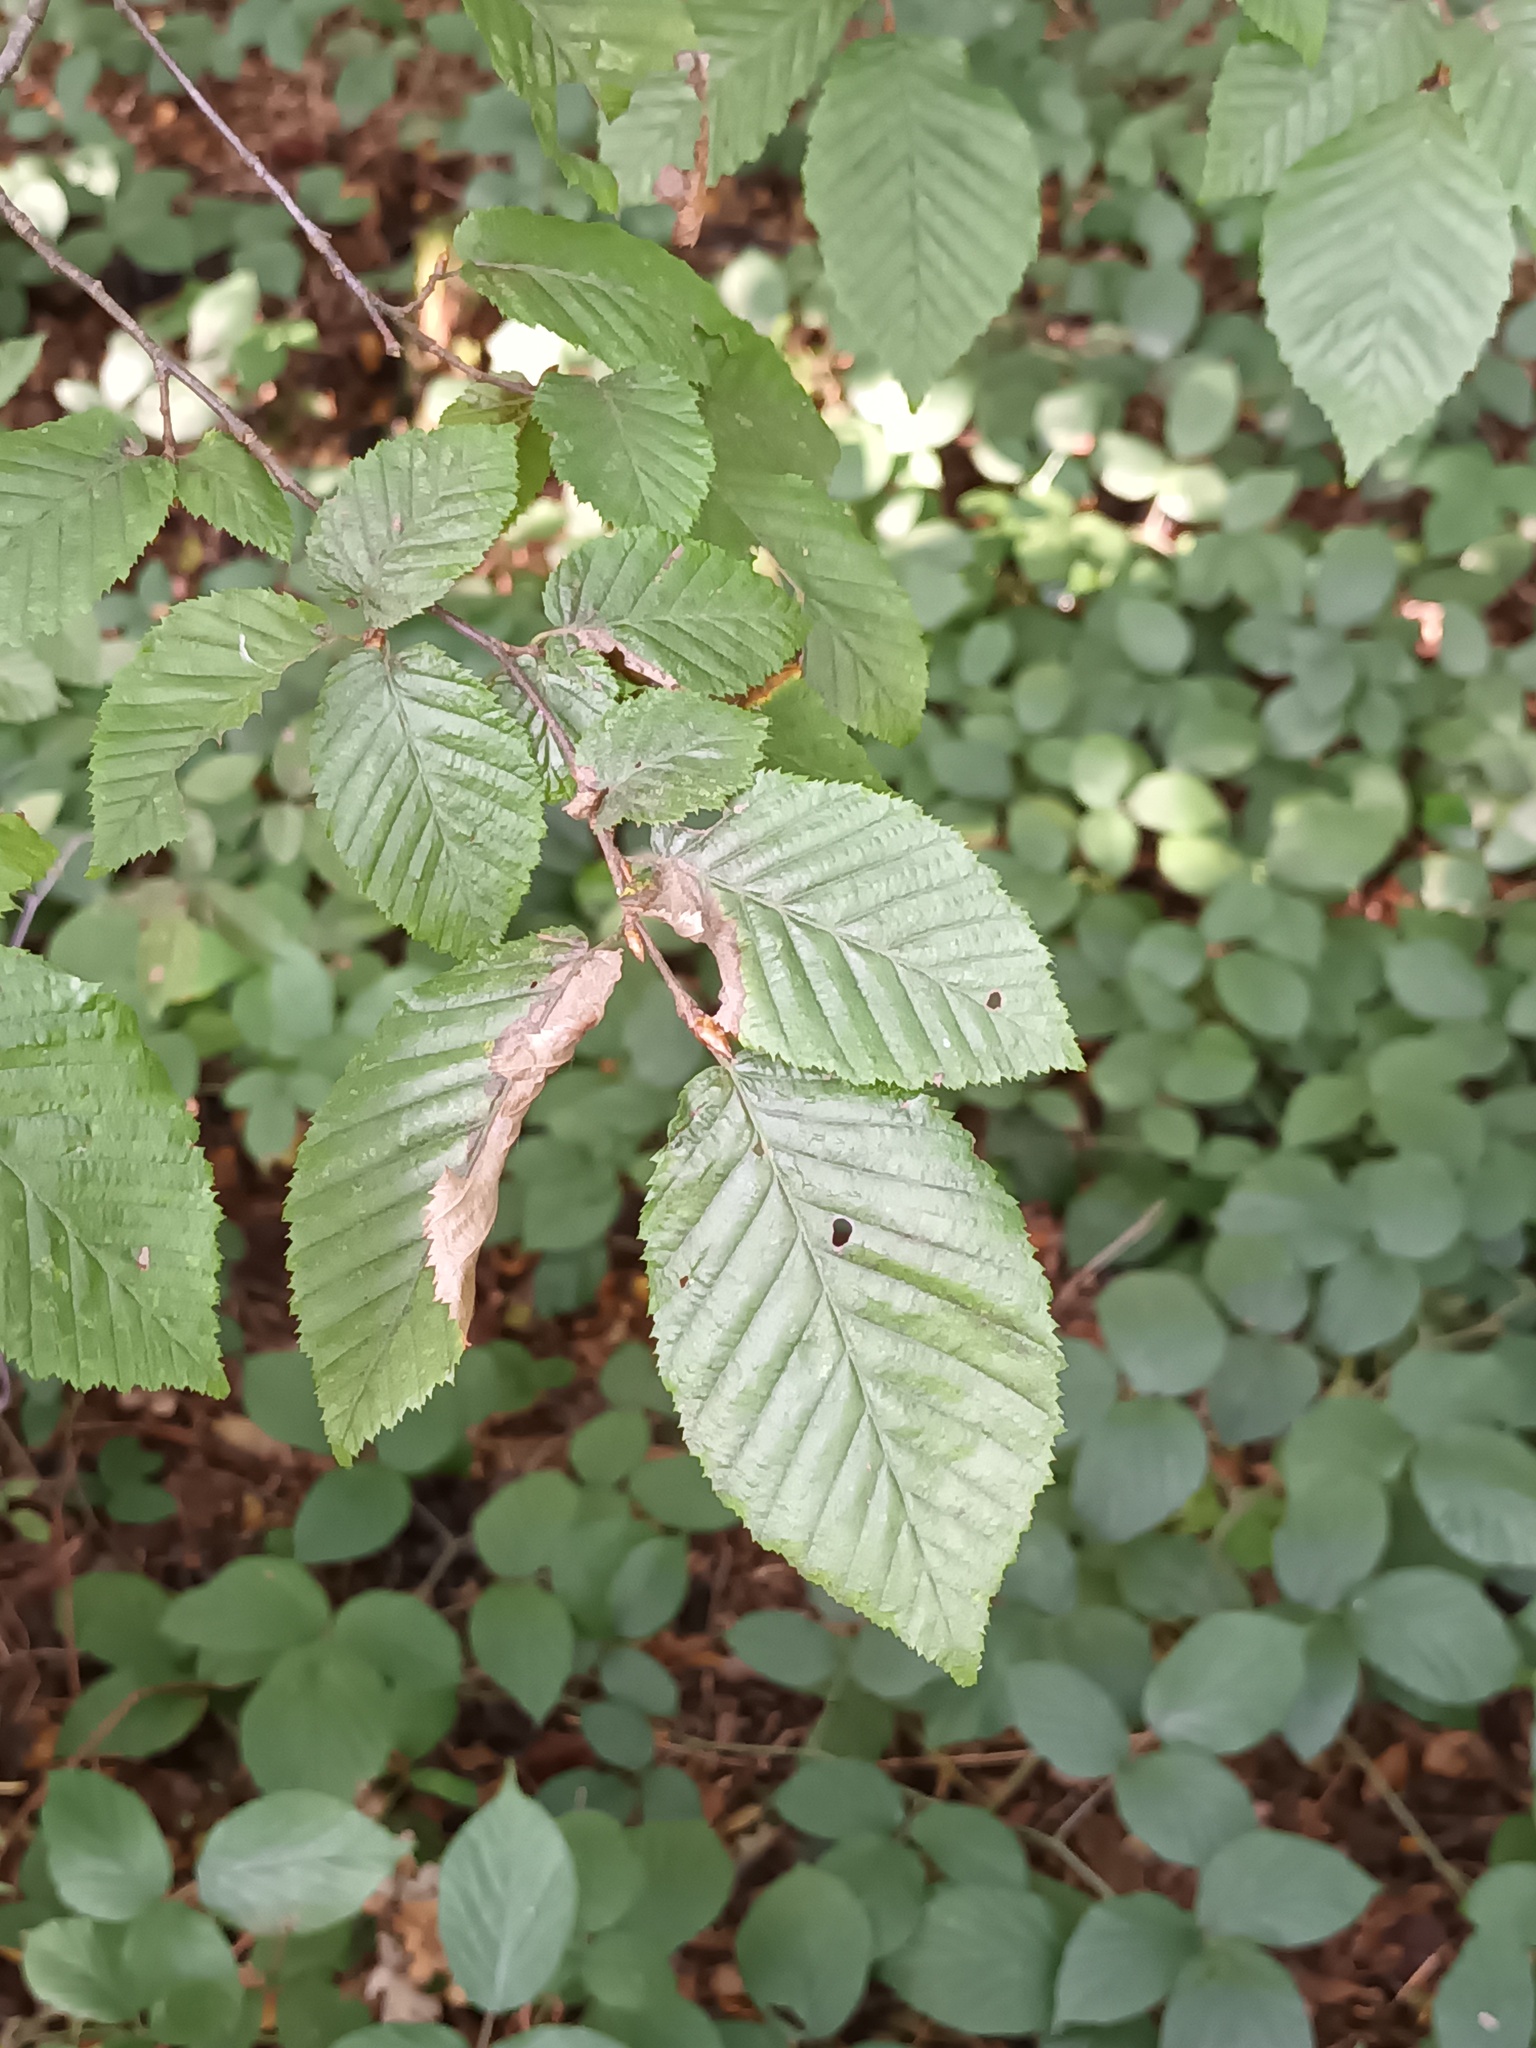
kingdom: Plantae
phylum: Tracheophyta
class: Magnoliopsida
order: Fagales
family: Betulaceae
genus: Carpinus
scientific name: Carpinus betulus
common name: Hornbeam
